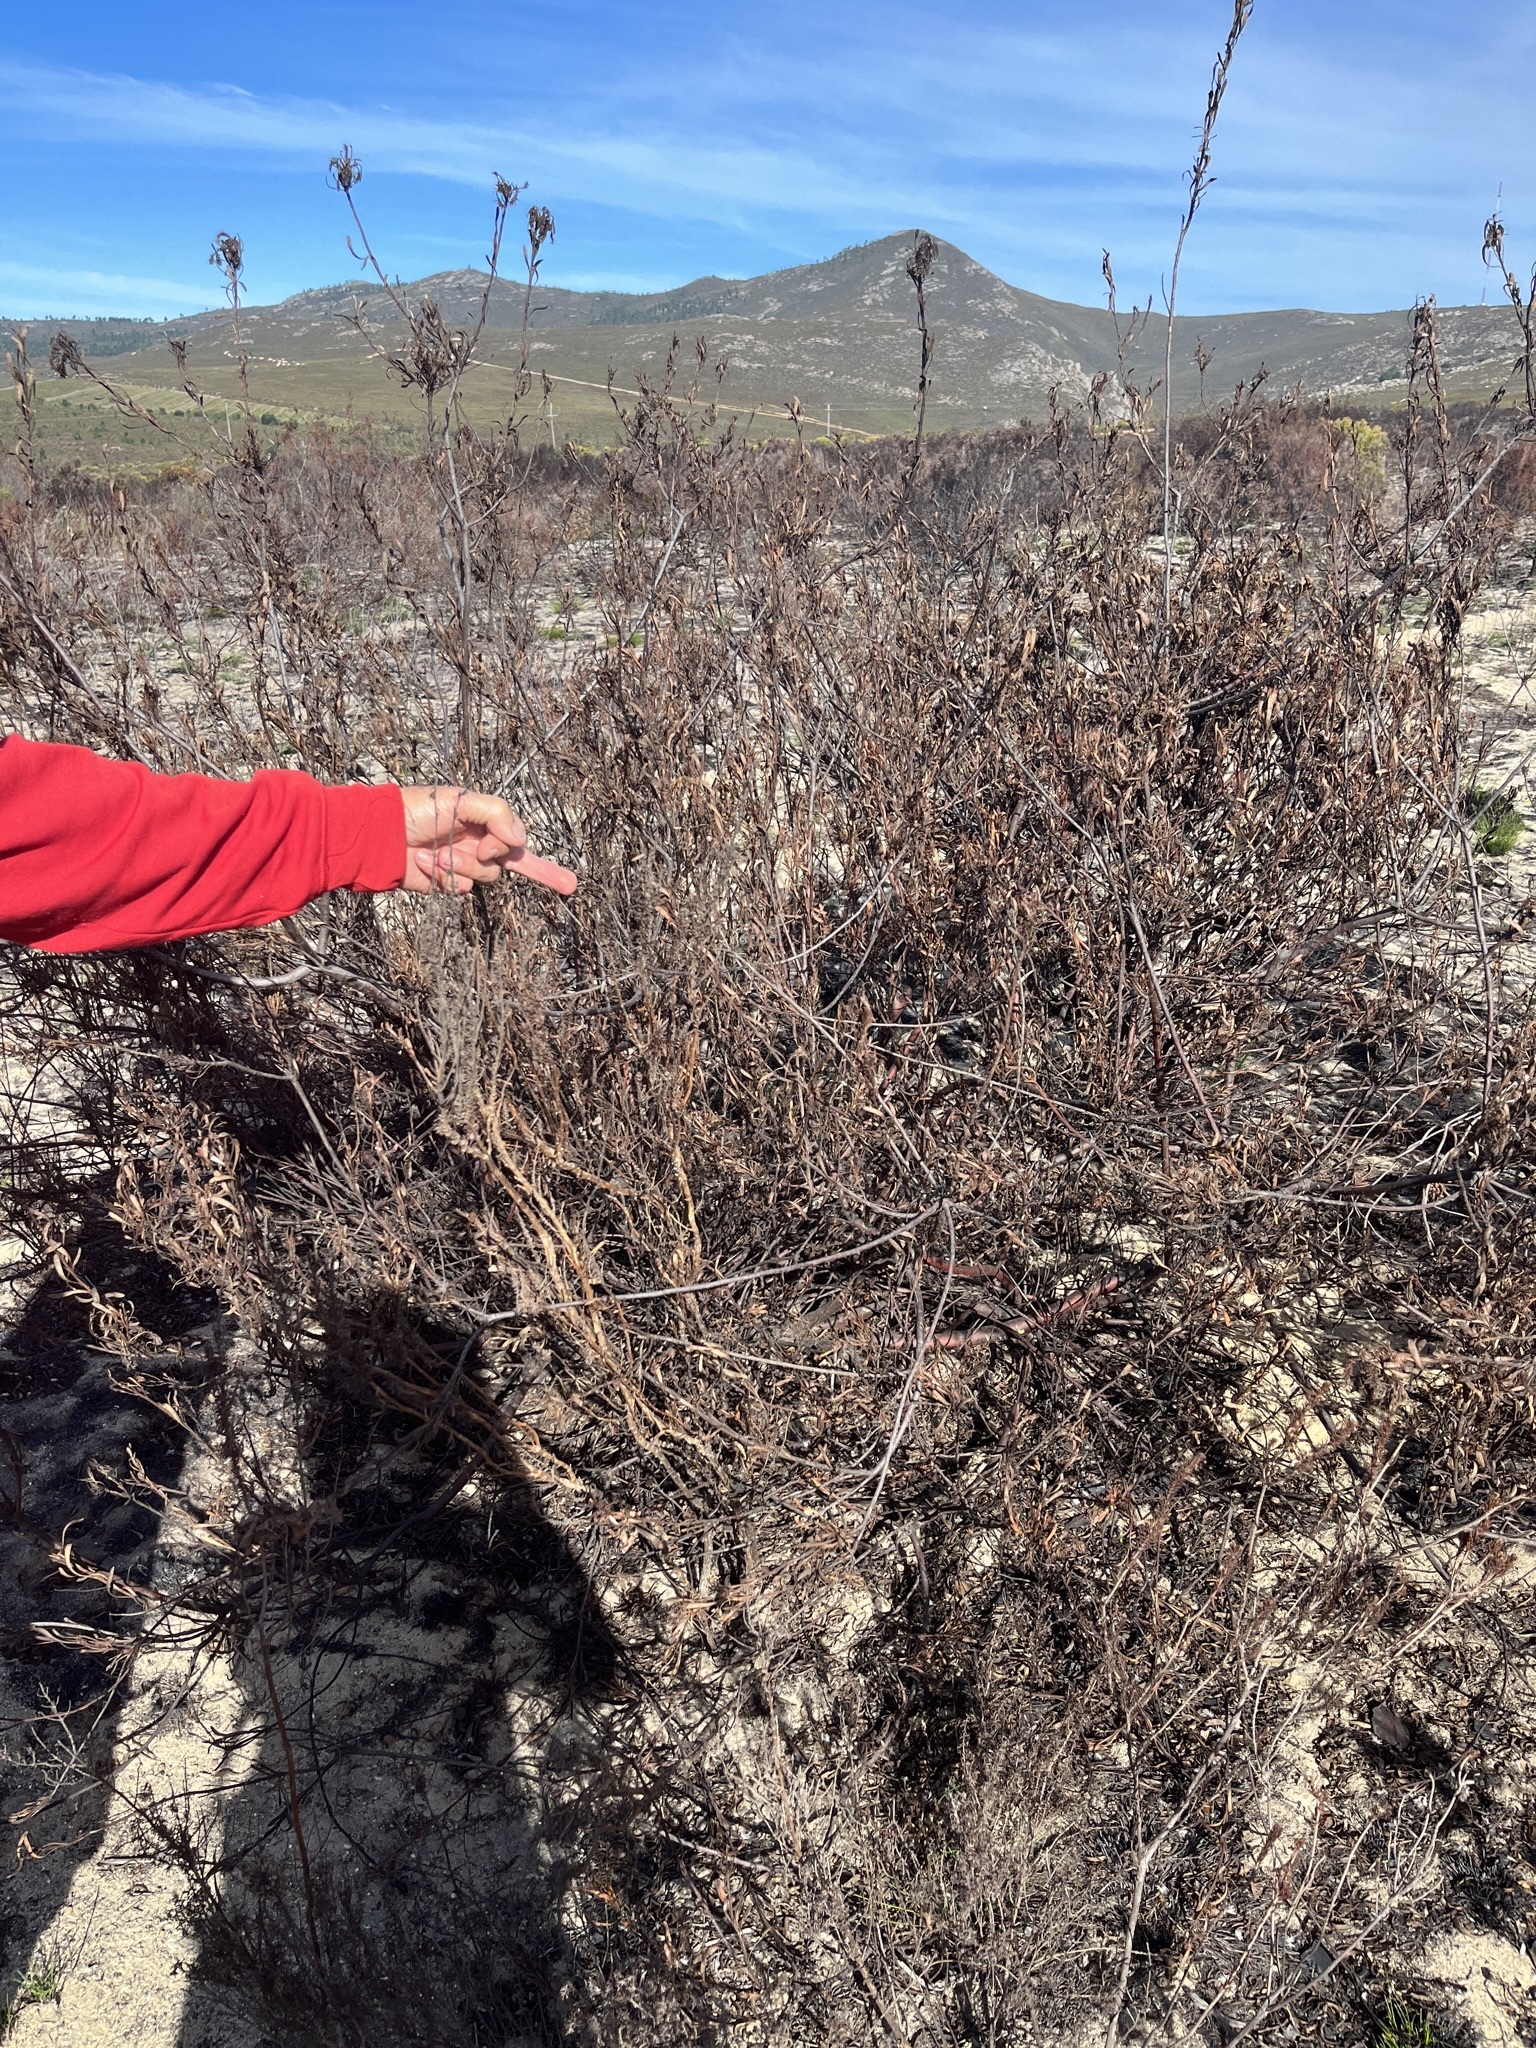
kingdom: Plantae
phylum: Tracheophyta
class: Magnoliopsida
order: Proteales
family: Proteaceae
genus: Aulax
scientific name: Aulax umbellata
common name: Broad-leaf featherbush
